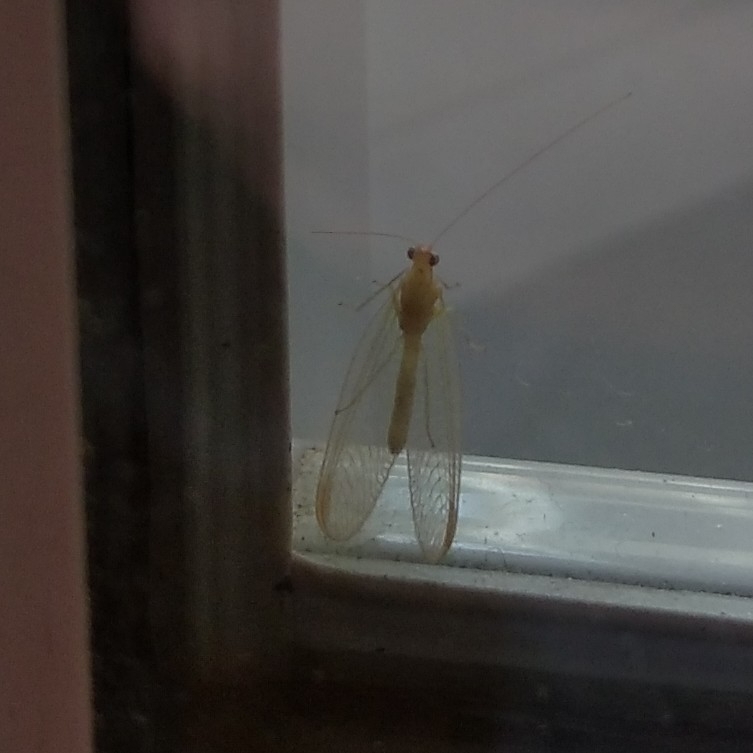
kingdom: Animalia
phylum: Arthropoda
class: Insecta
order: Neuroptera
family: Chrysopidae
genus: Chrysoperla
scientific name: Chrysoperla
